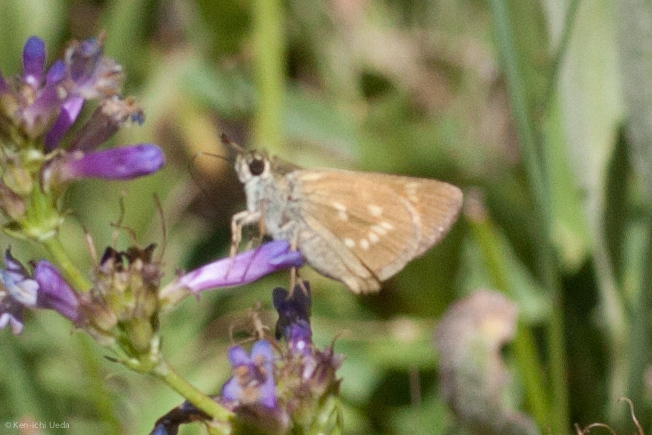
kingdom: Animalia
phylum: Arthropoda
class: Insecta
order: Lepidoptera
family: Hesperiidae
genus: Polites
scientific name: Polites mystic
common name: Long dash
